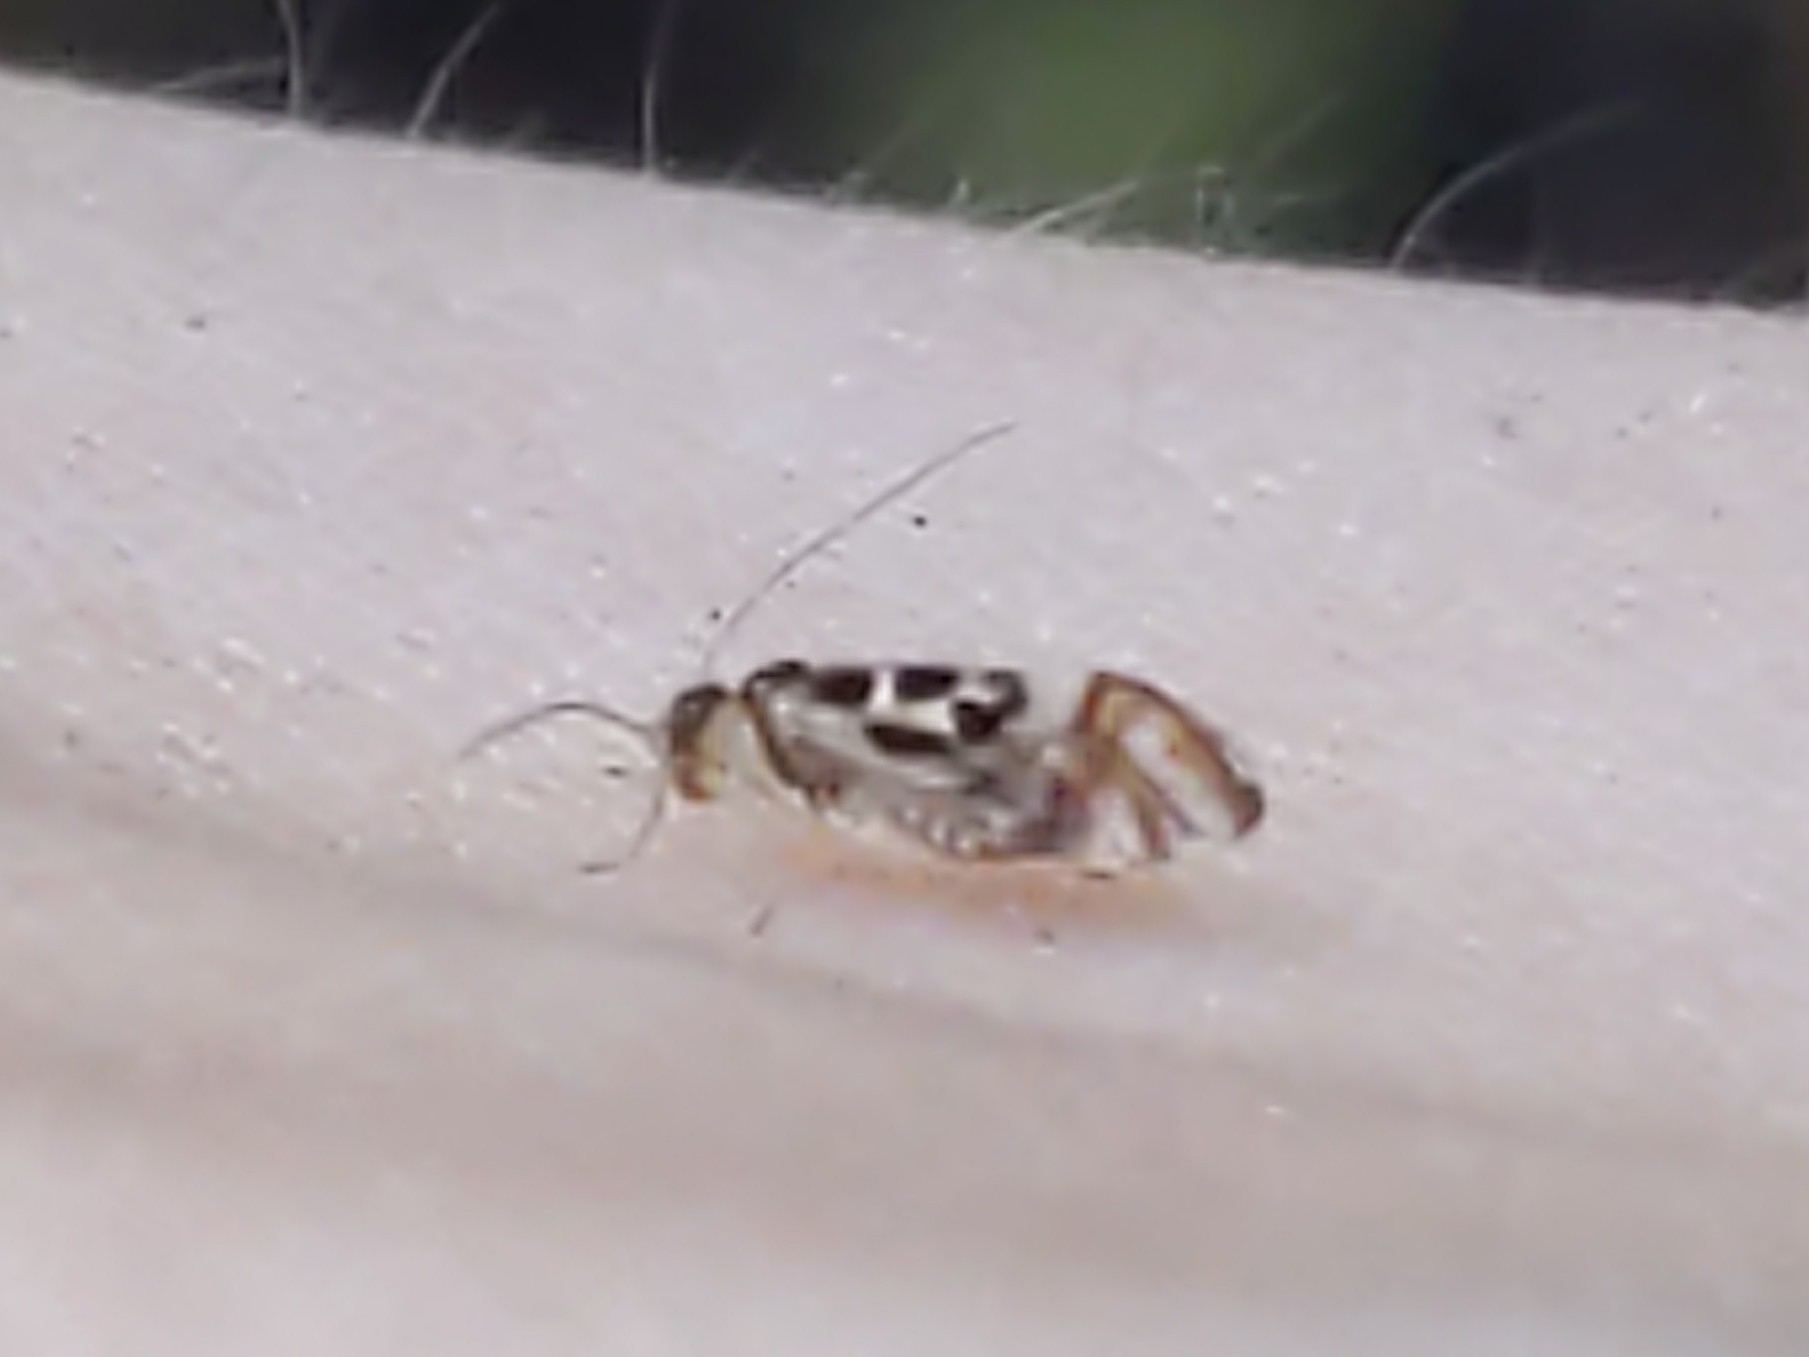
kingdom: Animalia
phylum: Arthropoda
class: Insecta
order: Psocodea
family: Stenopsocidae
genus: Graphopsocus
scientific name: Graphopsocus cruciatus
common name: Lizard bark louse
